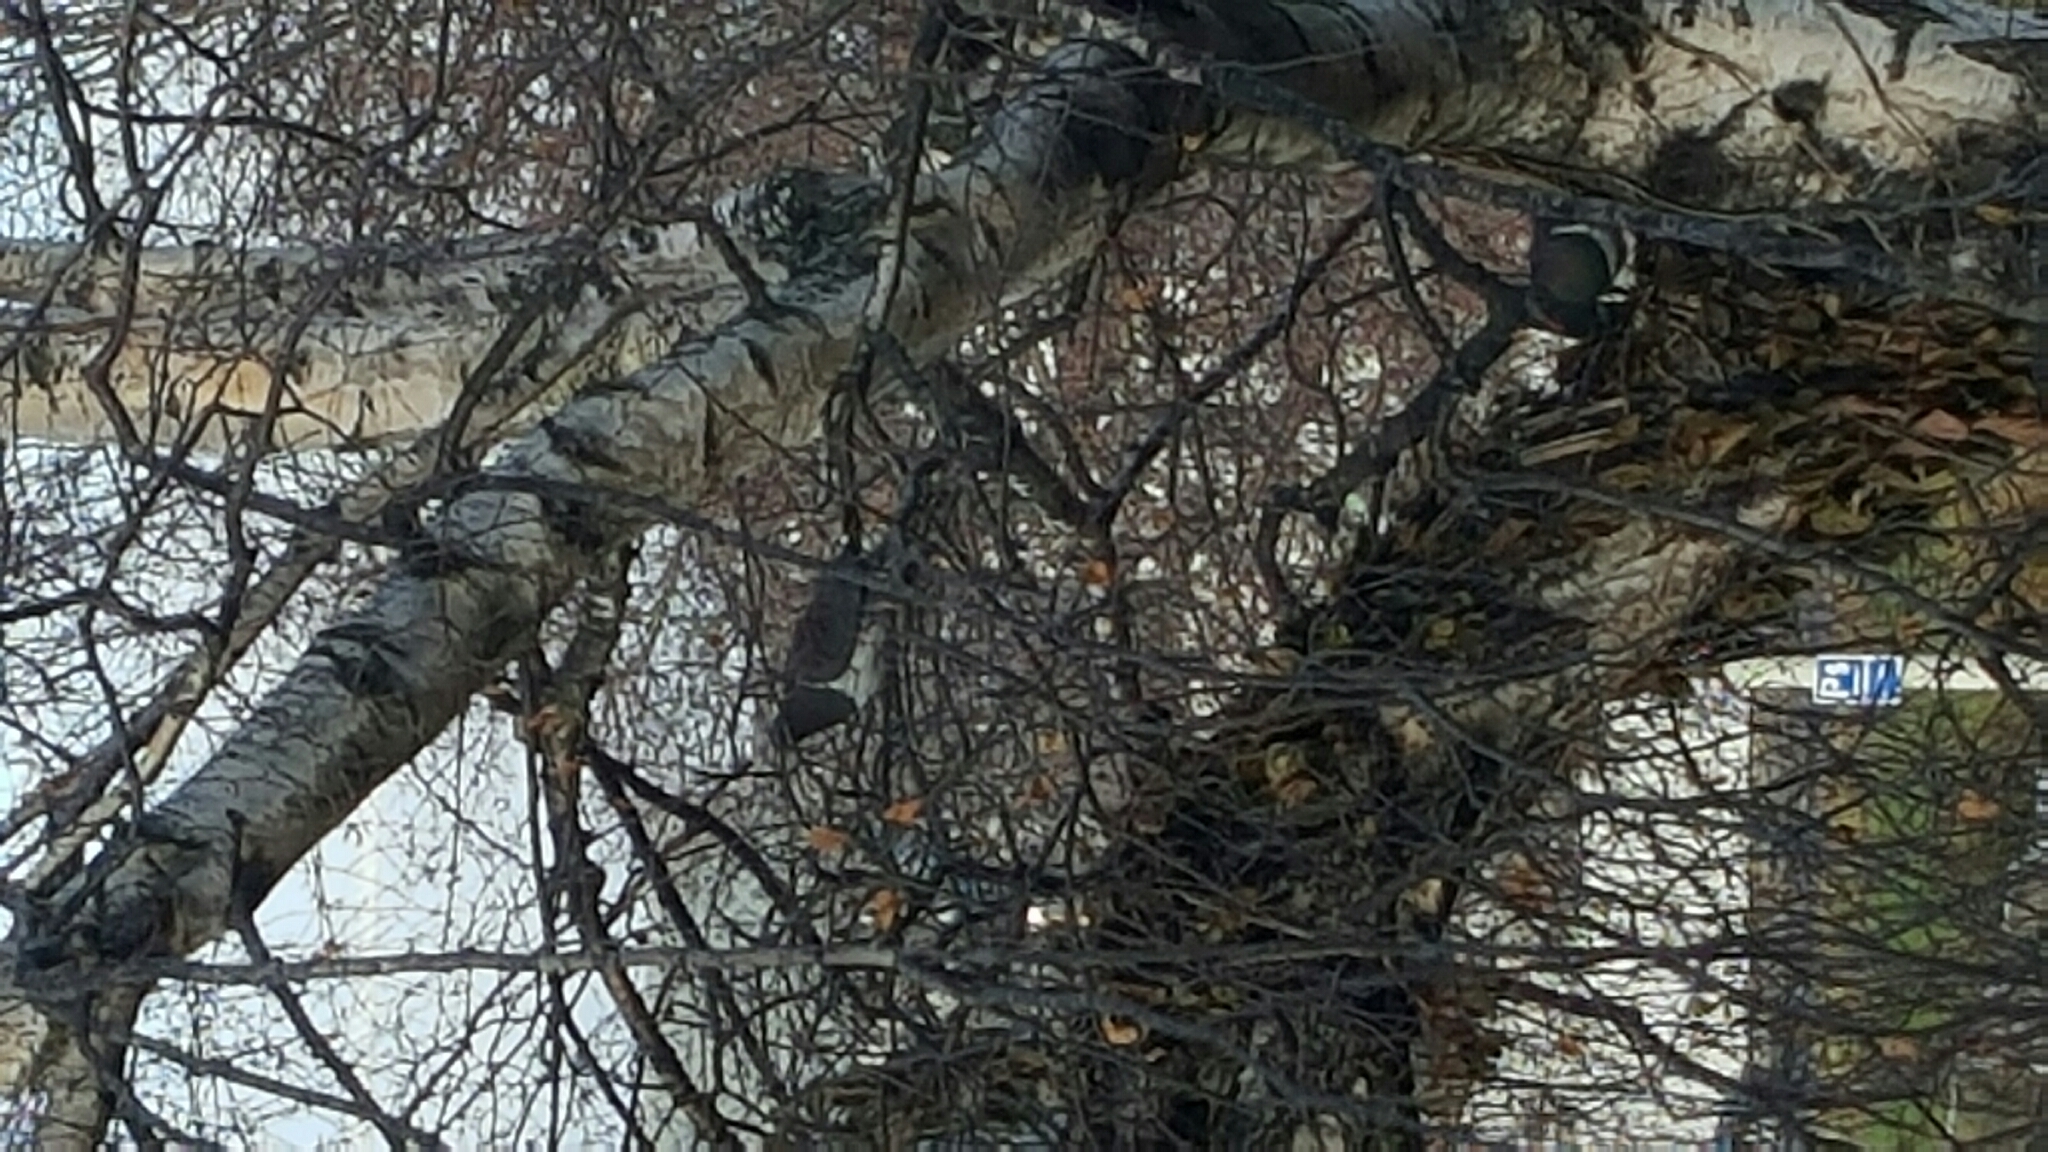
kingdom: Animalia
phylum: Chordata
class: Aves
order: Columbiformes
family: Columbidae
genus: Hemiphaga
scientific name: Hemiphaga novaeseelandiae
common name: New zealand pigeon
